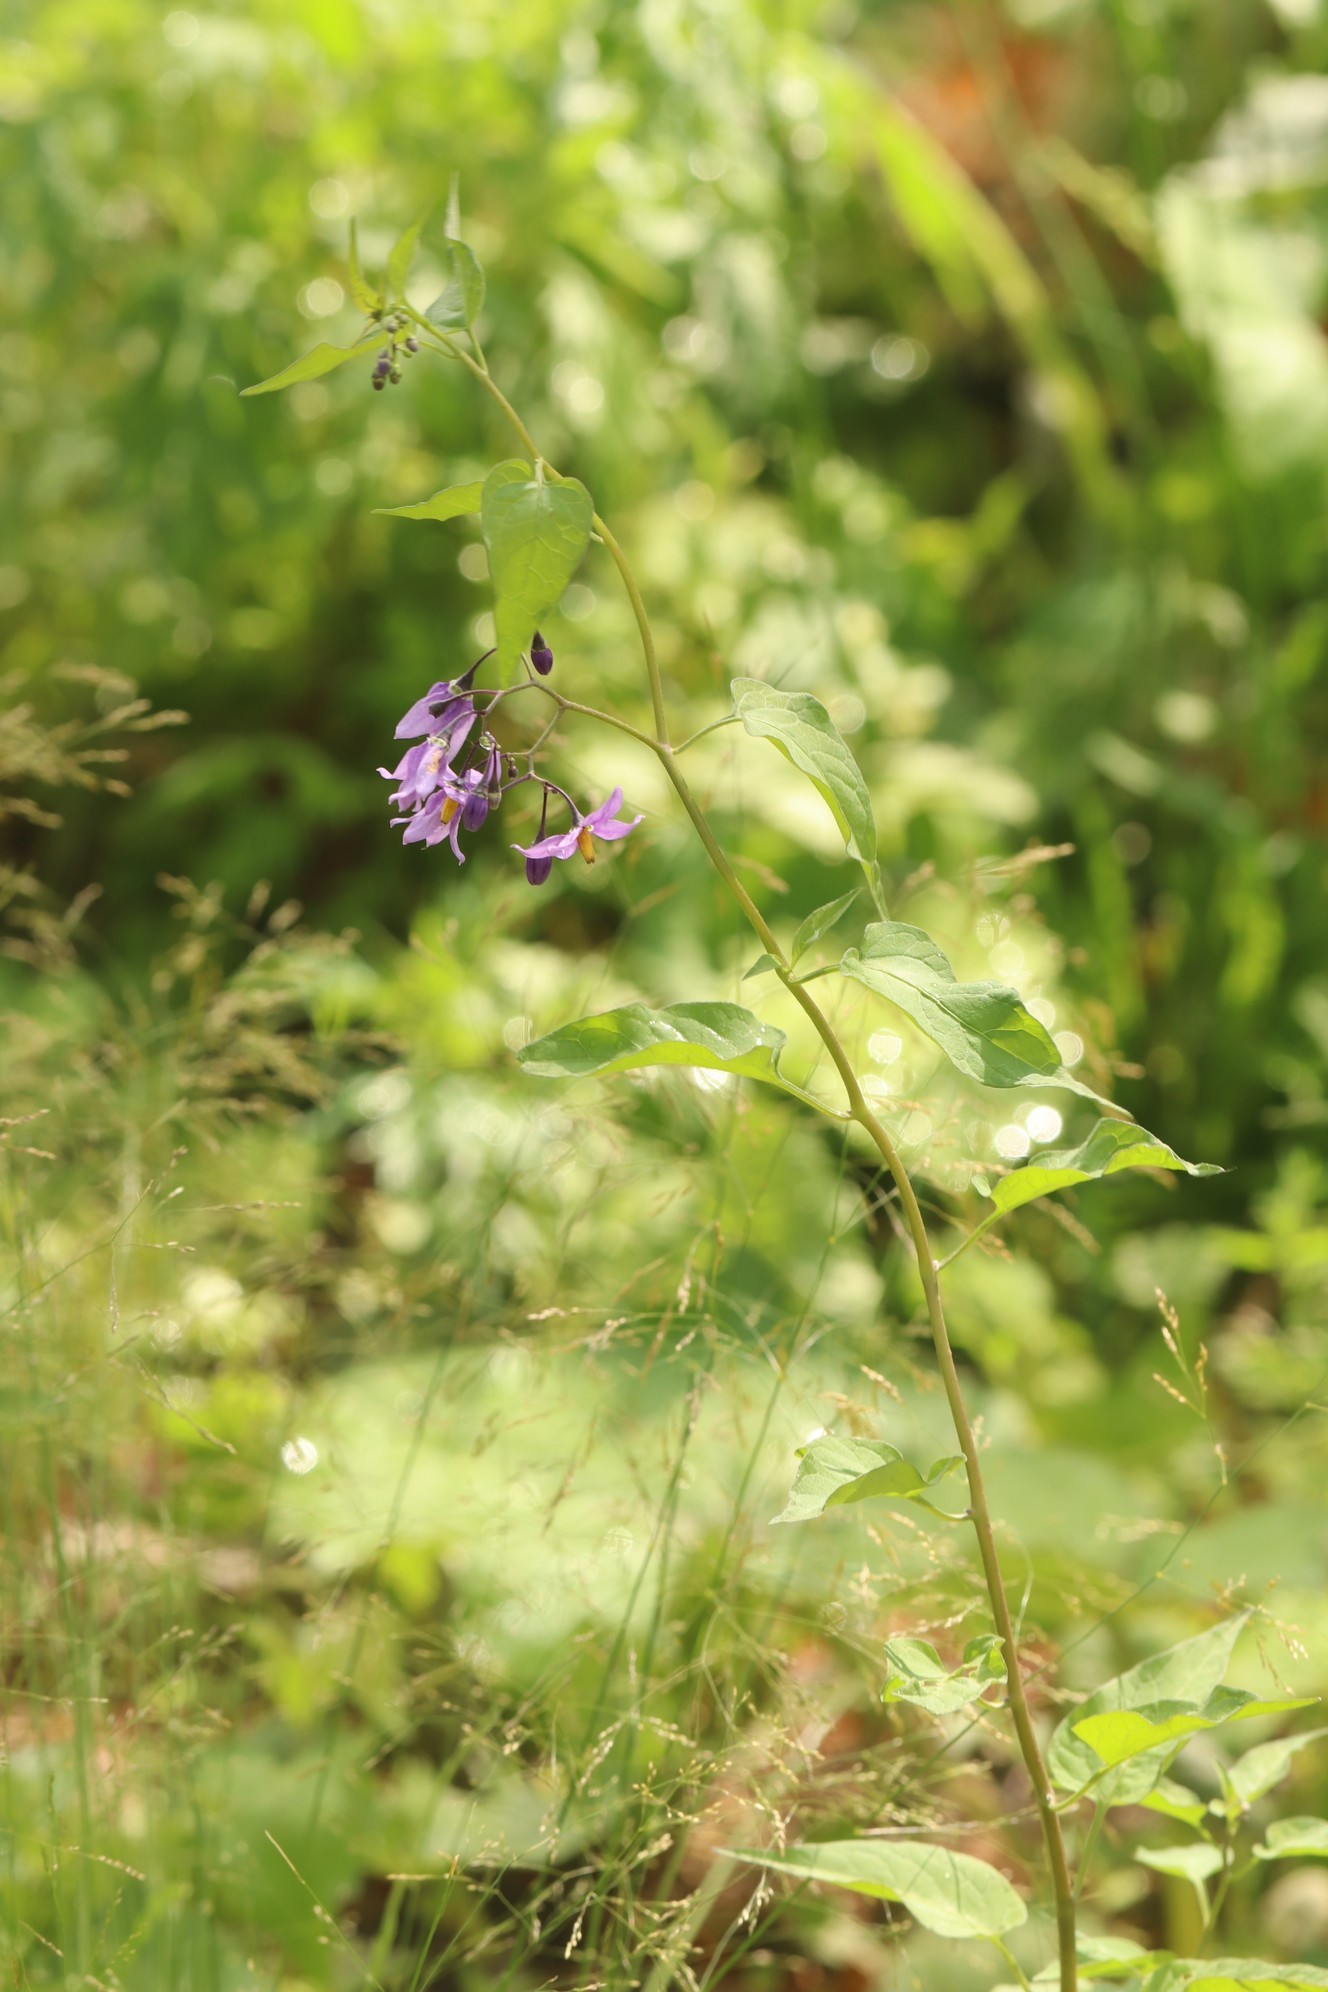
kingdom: Plantae
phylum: Tracheophyta
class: Magnoliopsida
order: Solanales
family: Solanaceae
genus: Solanum
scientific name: Solanum dulcamara
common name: Climbing nightshade
